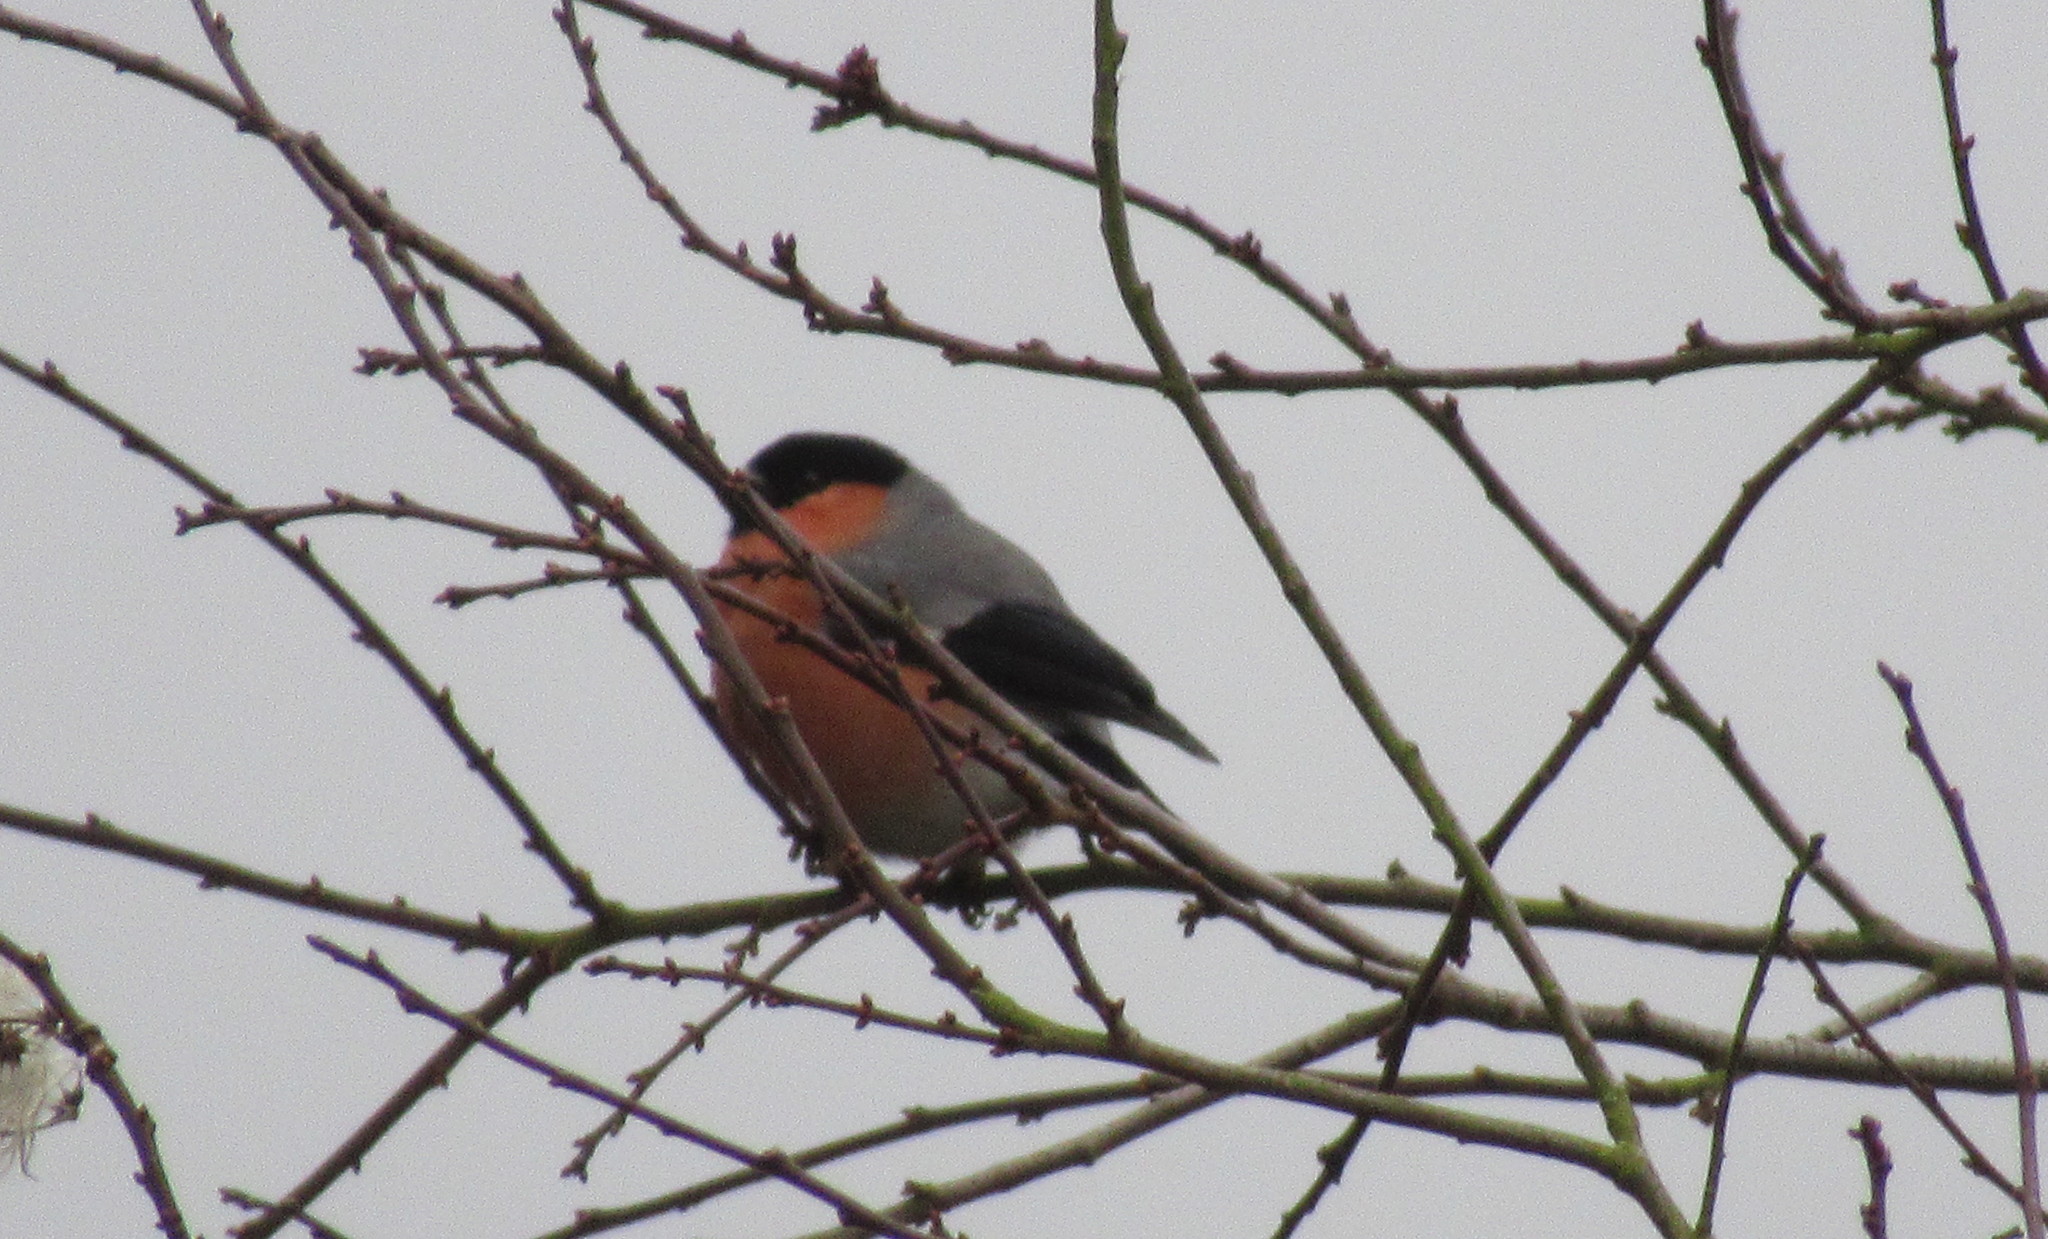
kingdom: Animalia
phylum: Chordata
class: Aves
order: Passeriformes
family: Fringillidae
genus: Pyrrhula
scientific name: Pyrrhula pyrrhula
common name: Eurasian bullfinch
